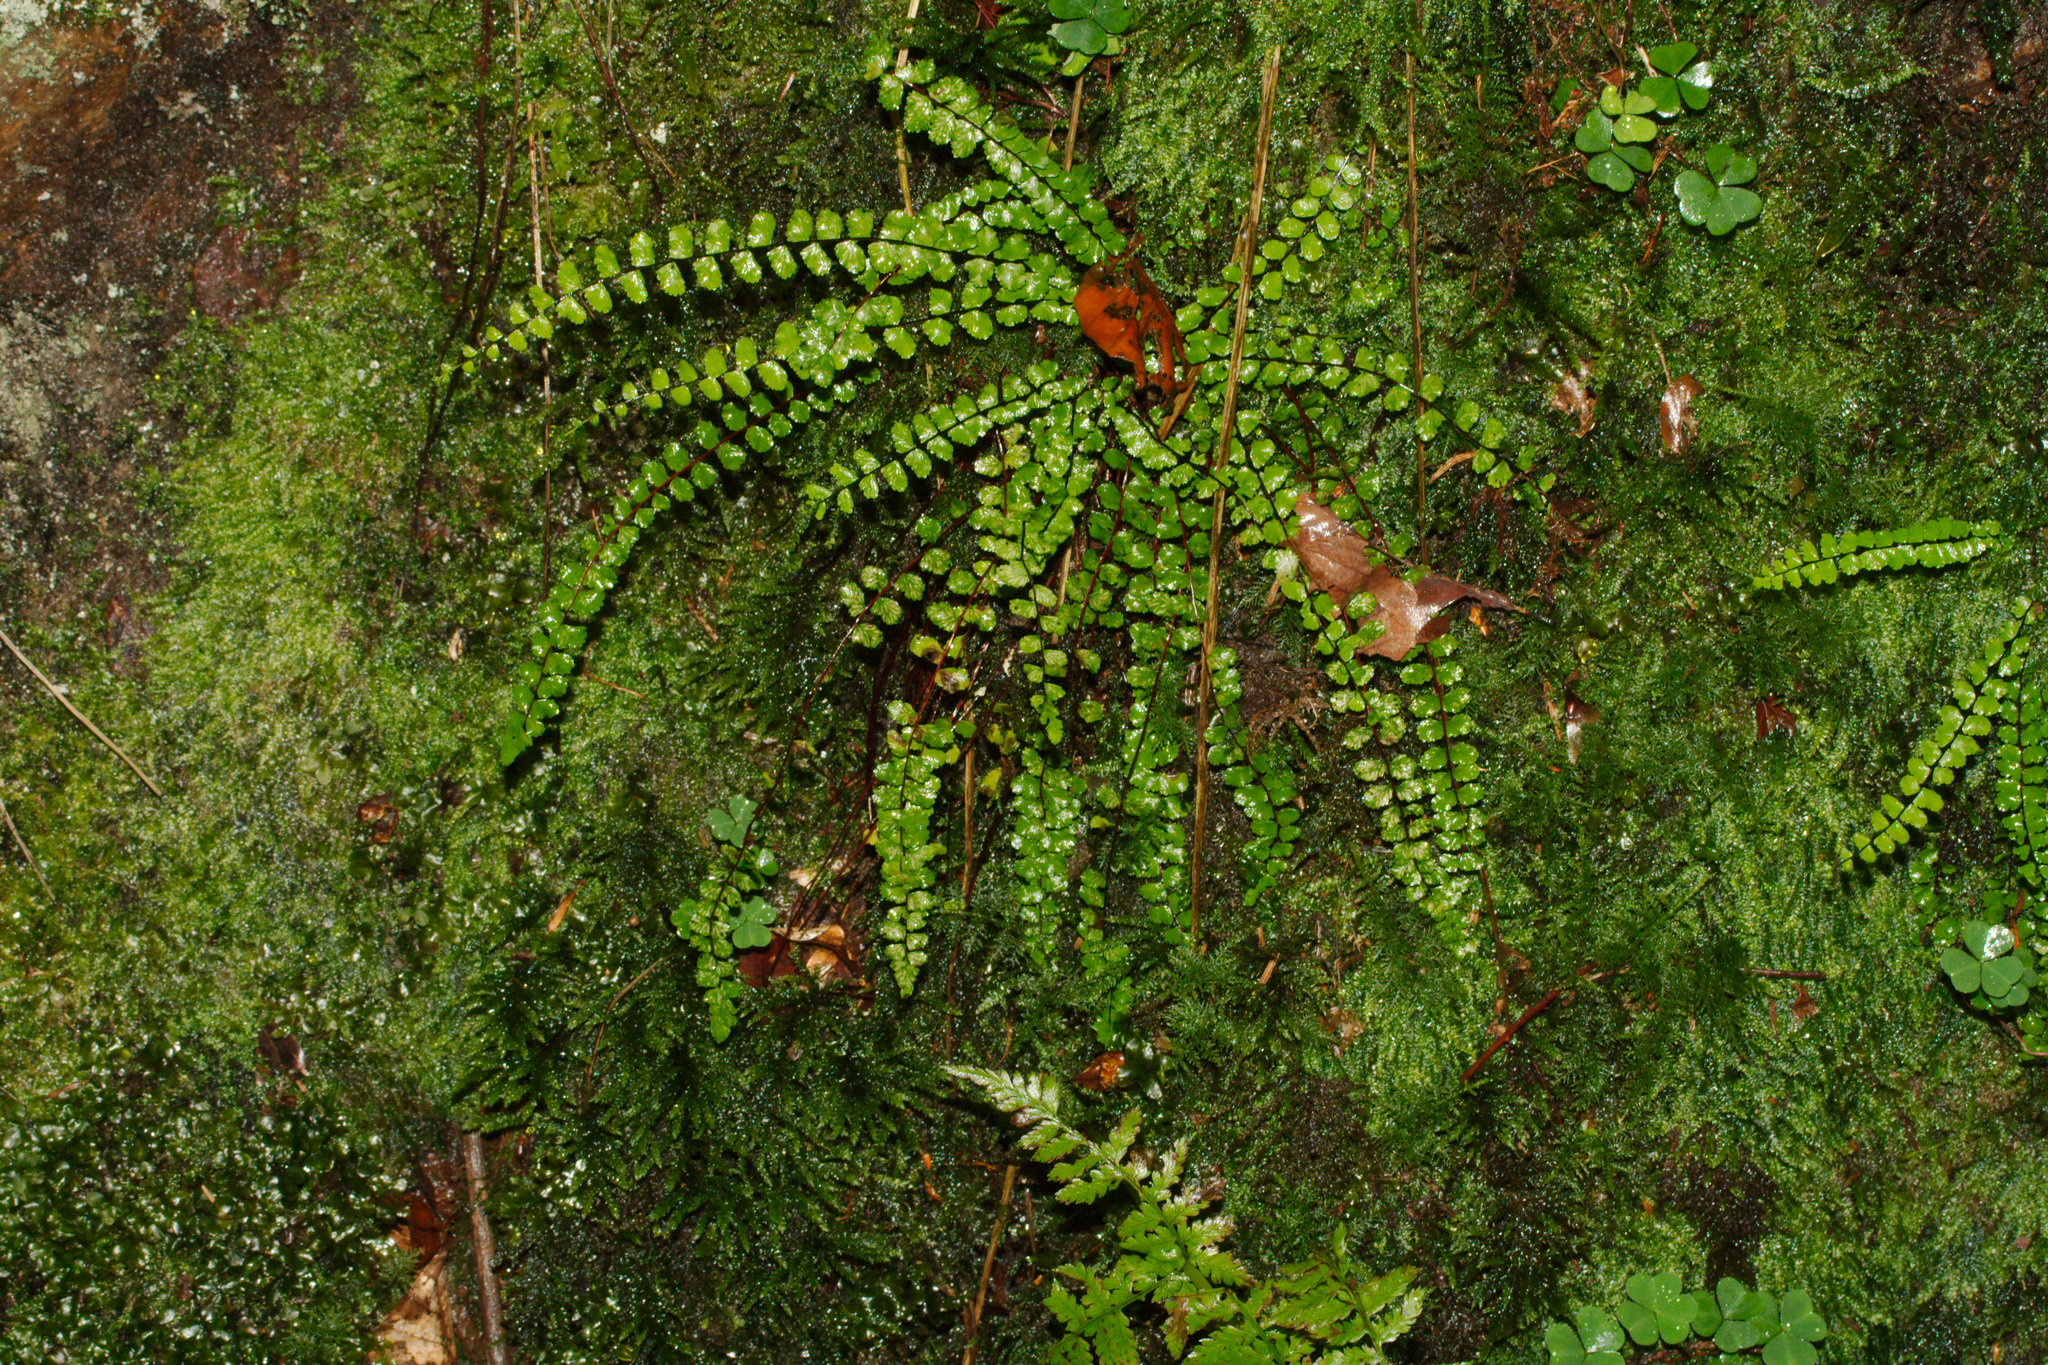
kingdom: Plantae
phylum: Tracheophyta
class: Polypodiopsida
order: Polypodiales
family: Aspleniaceae
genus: Asplenium
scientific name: Asplenium trichomanes
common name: Maidenhair spleenwort
